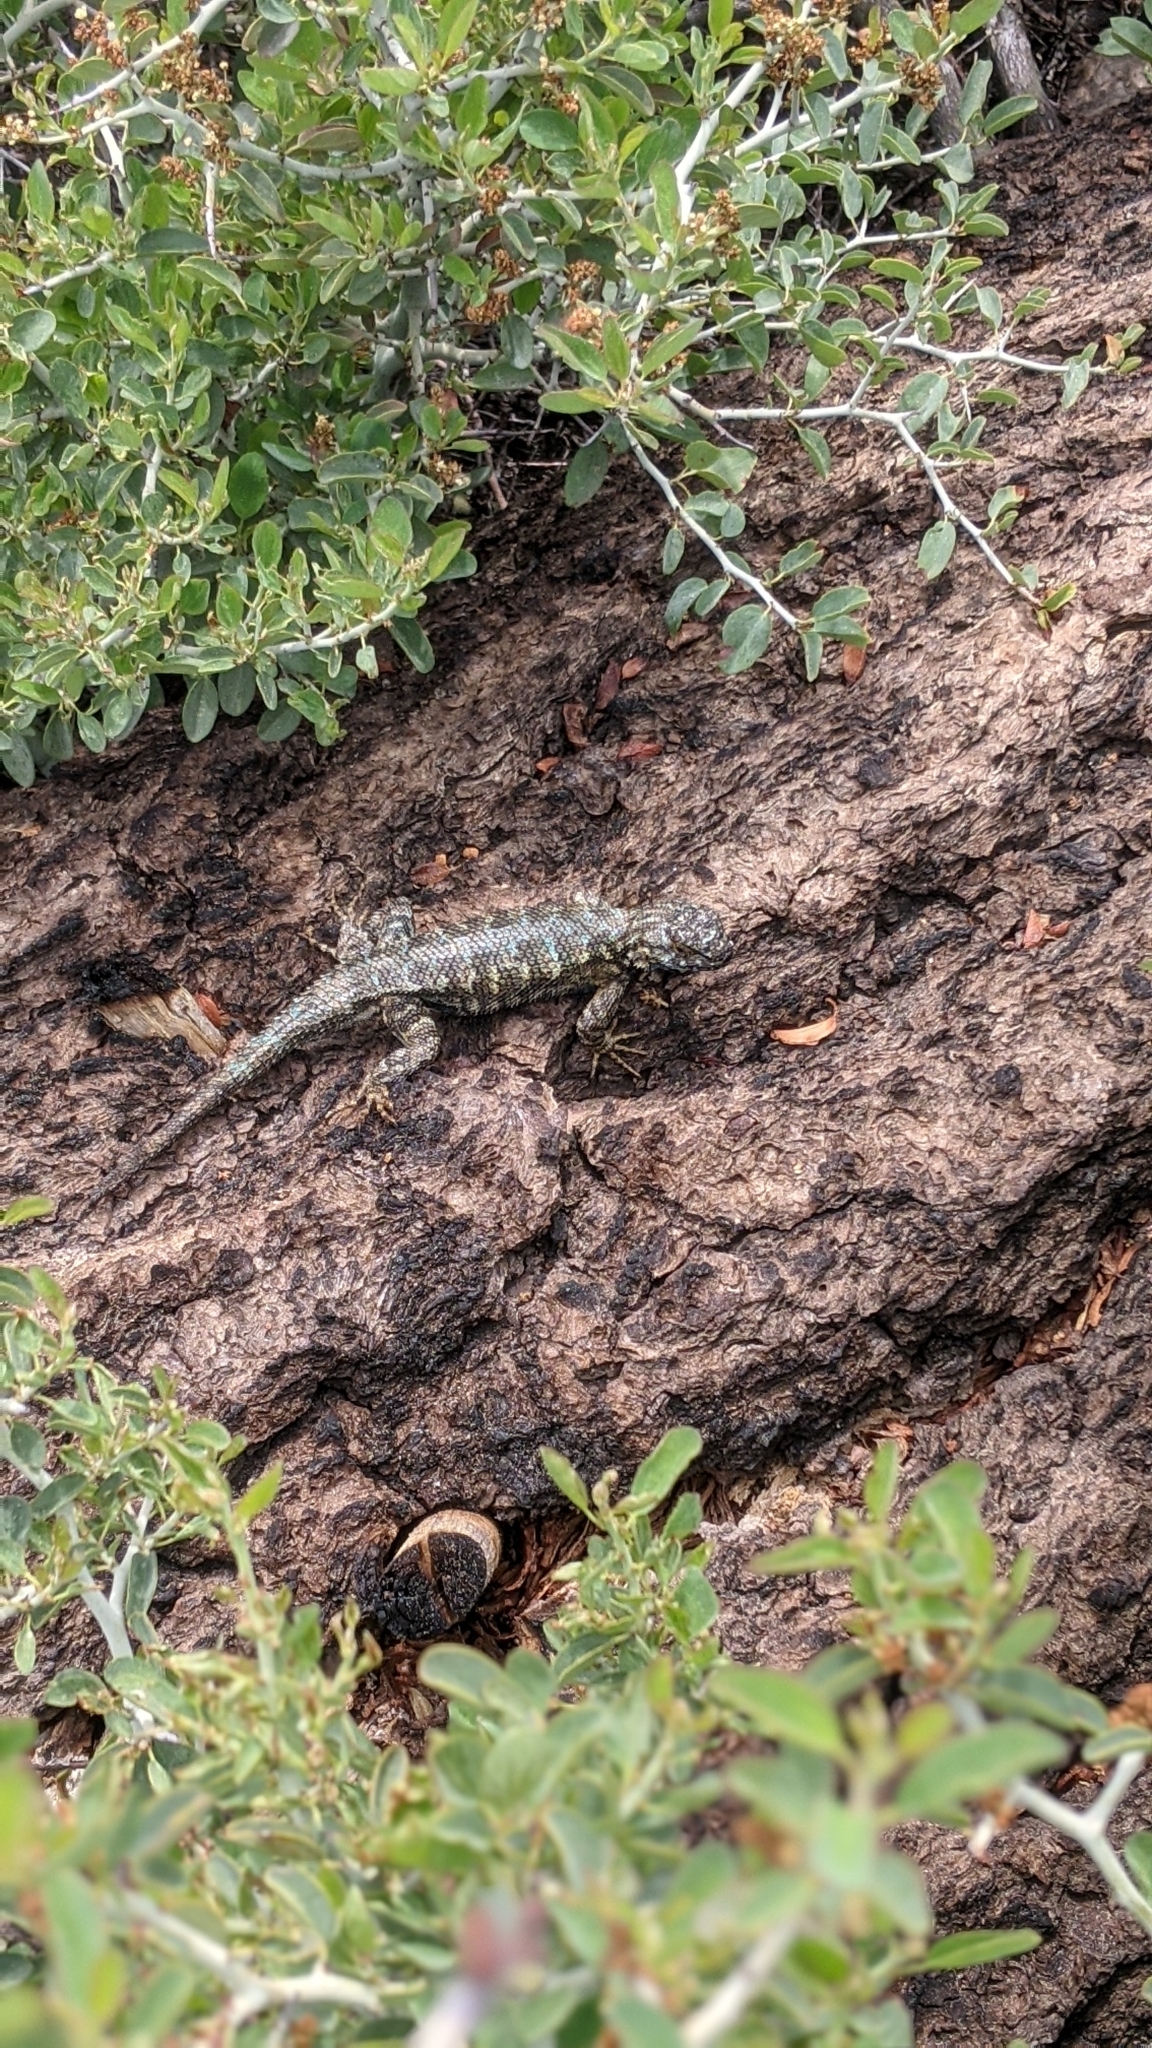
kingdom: Animalia
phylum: Chordata
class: Squamata
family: Phrynosomatidae
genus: Sceloporus
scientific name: Sceloporus occidentalis
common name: Western fence lizard
